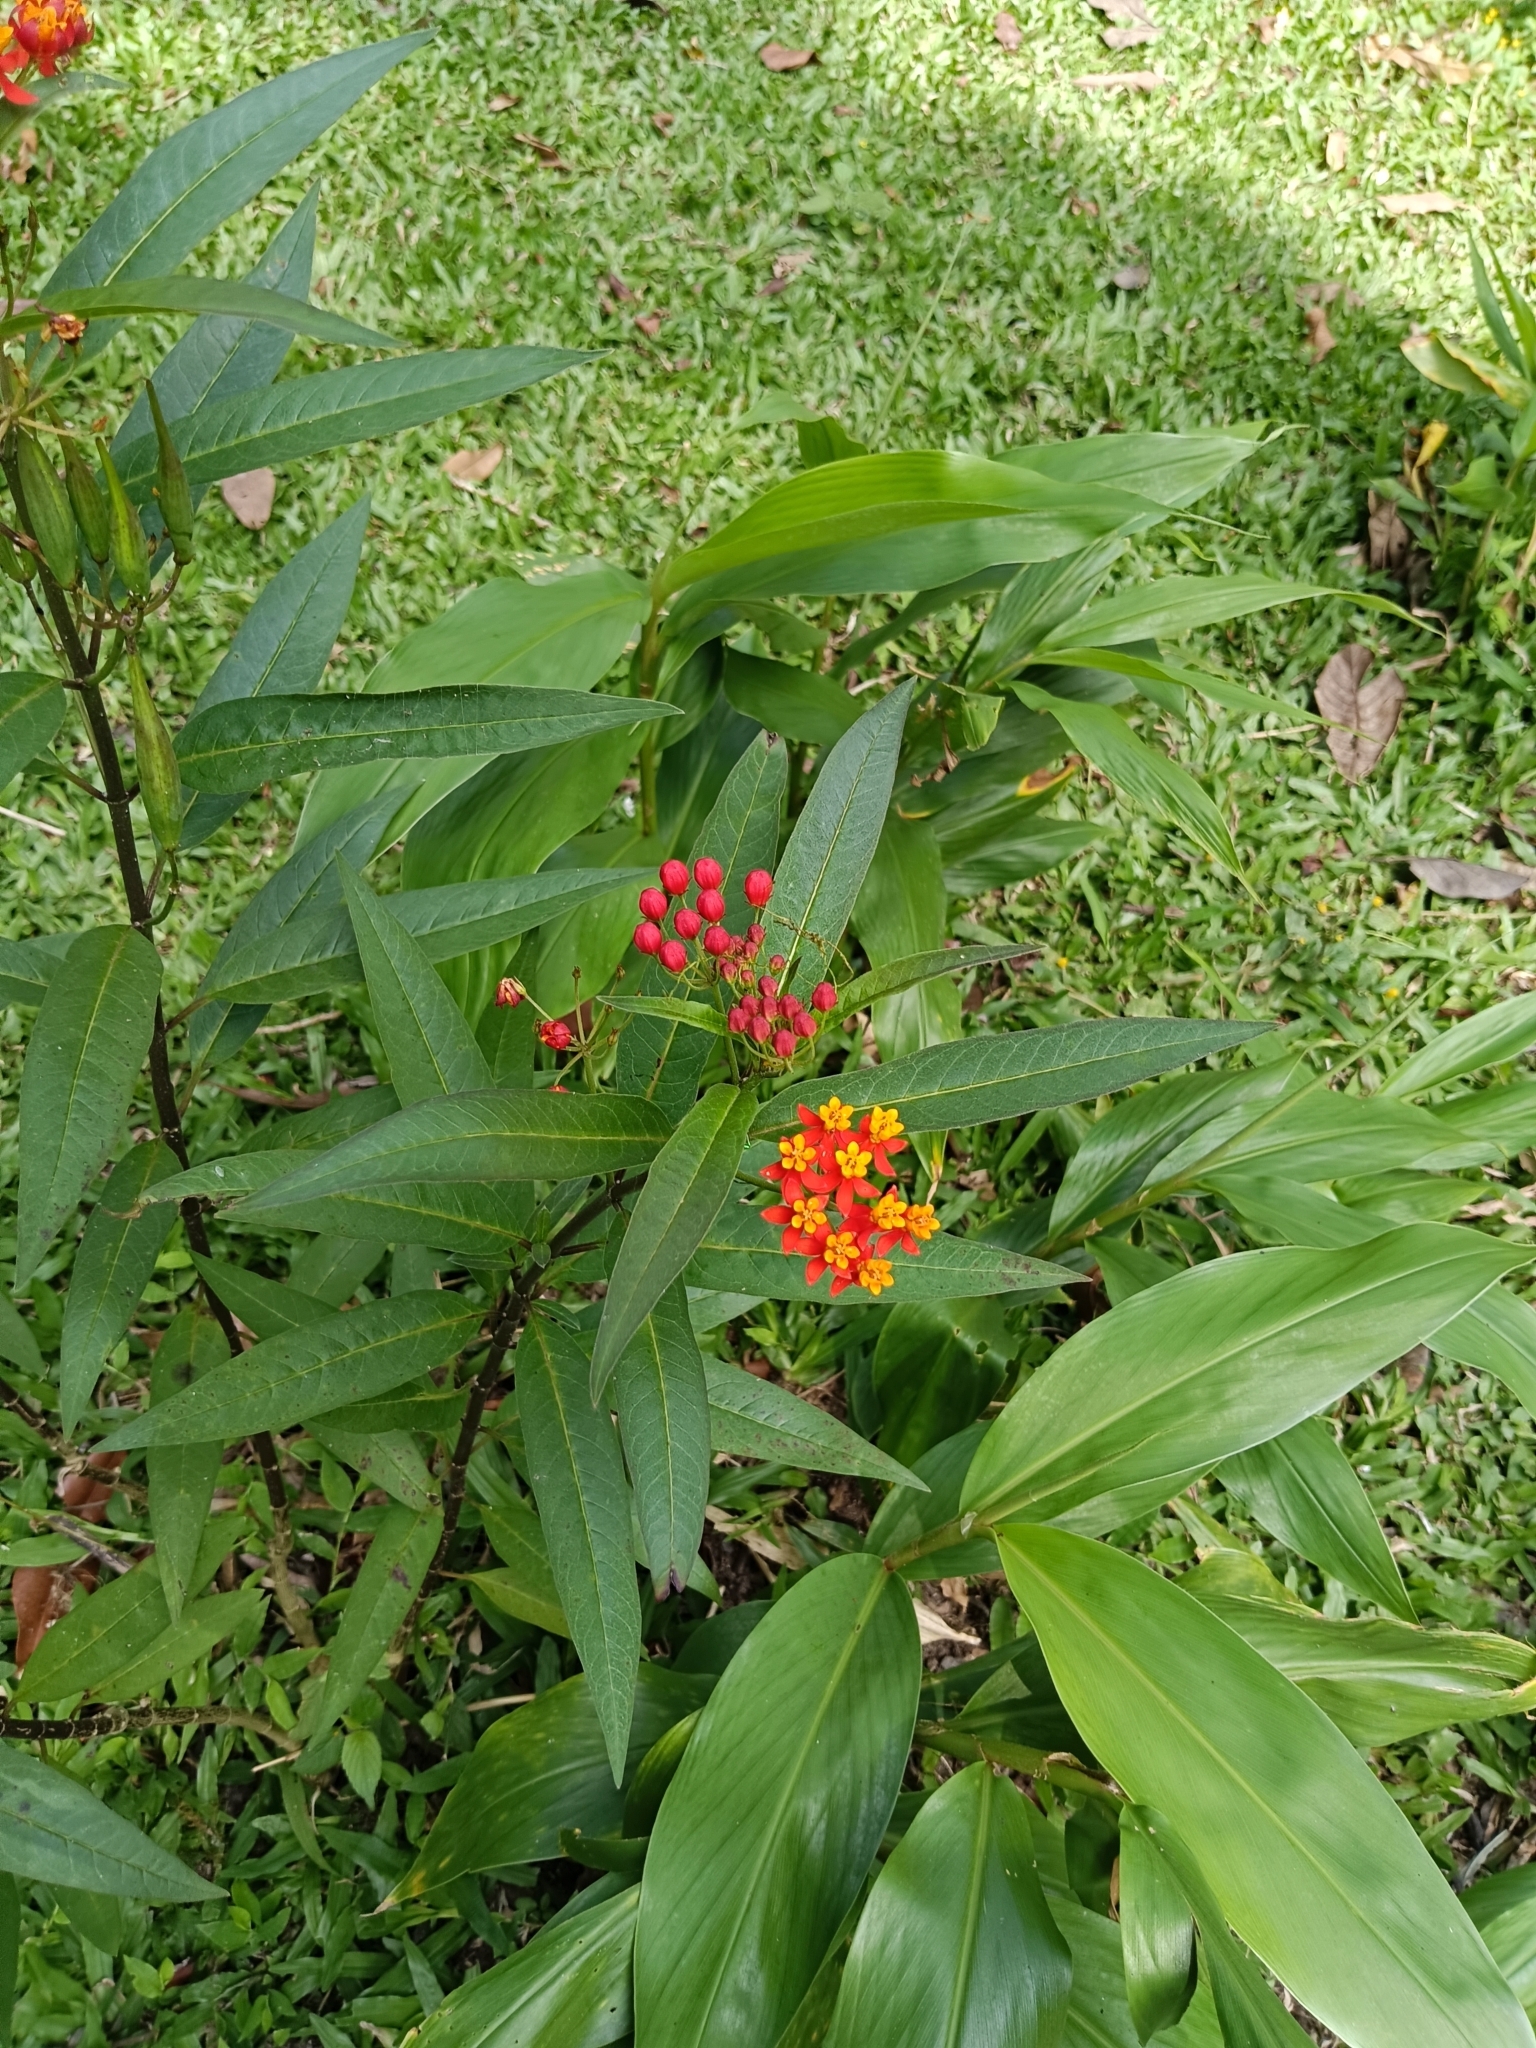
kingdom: Plantae
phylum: Tracheophyta
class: Magnoliopsida
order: Gentianales
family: Apocynaceae
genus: Asclepias
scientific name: Asclepias curassavica
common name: Bloodflower
